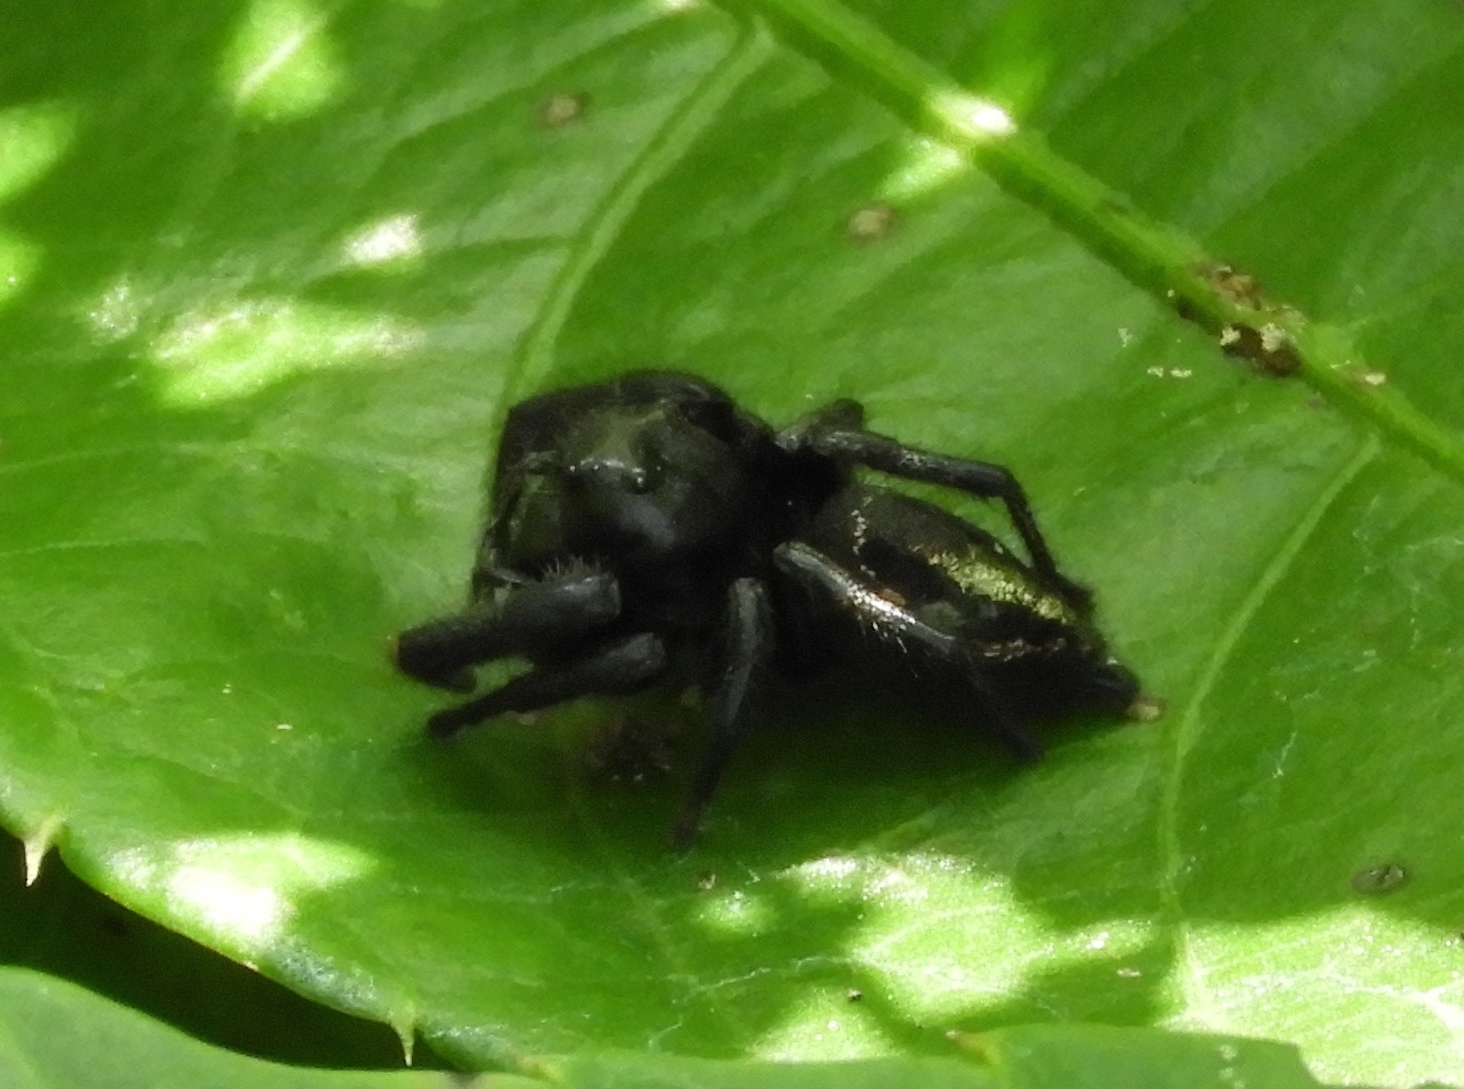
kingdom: Animalia
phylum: Arthropoda
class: Arachnida
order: Araneae
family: Salticidae
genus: Paraphidippus
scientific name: Paraphidippus
